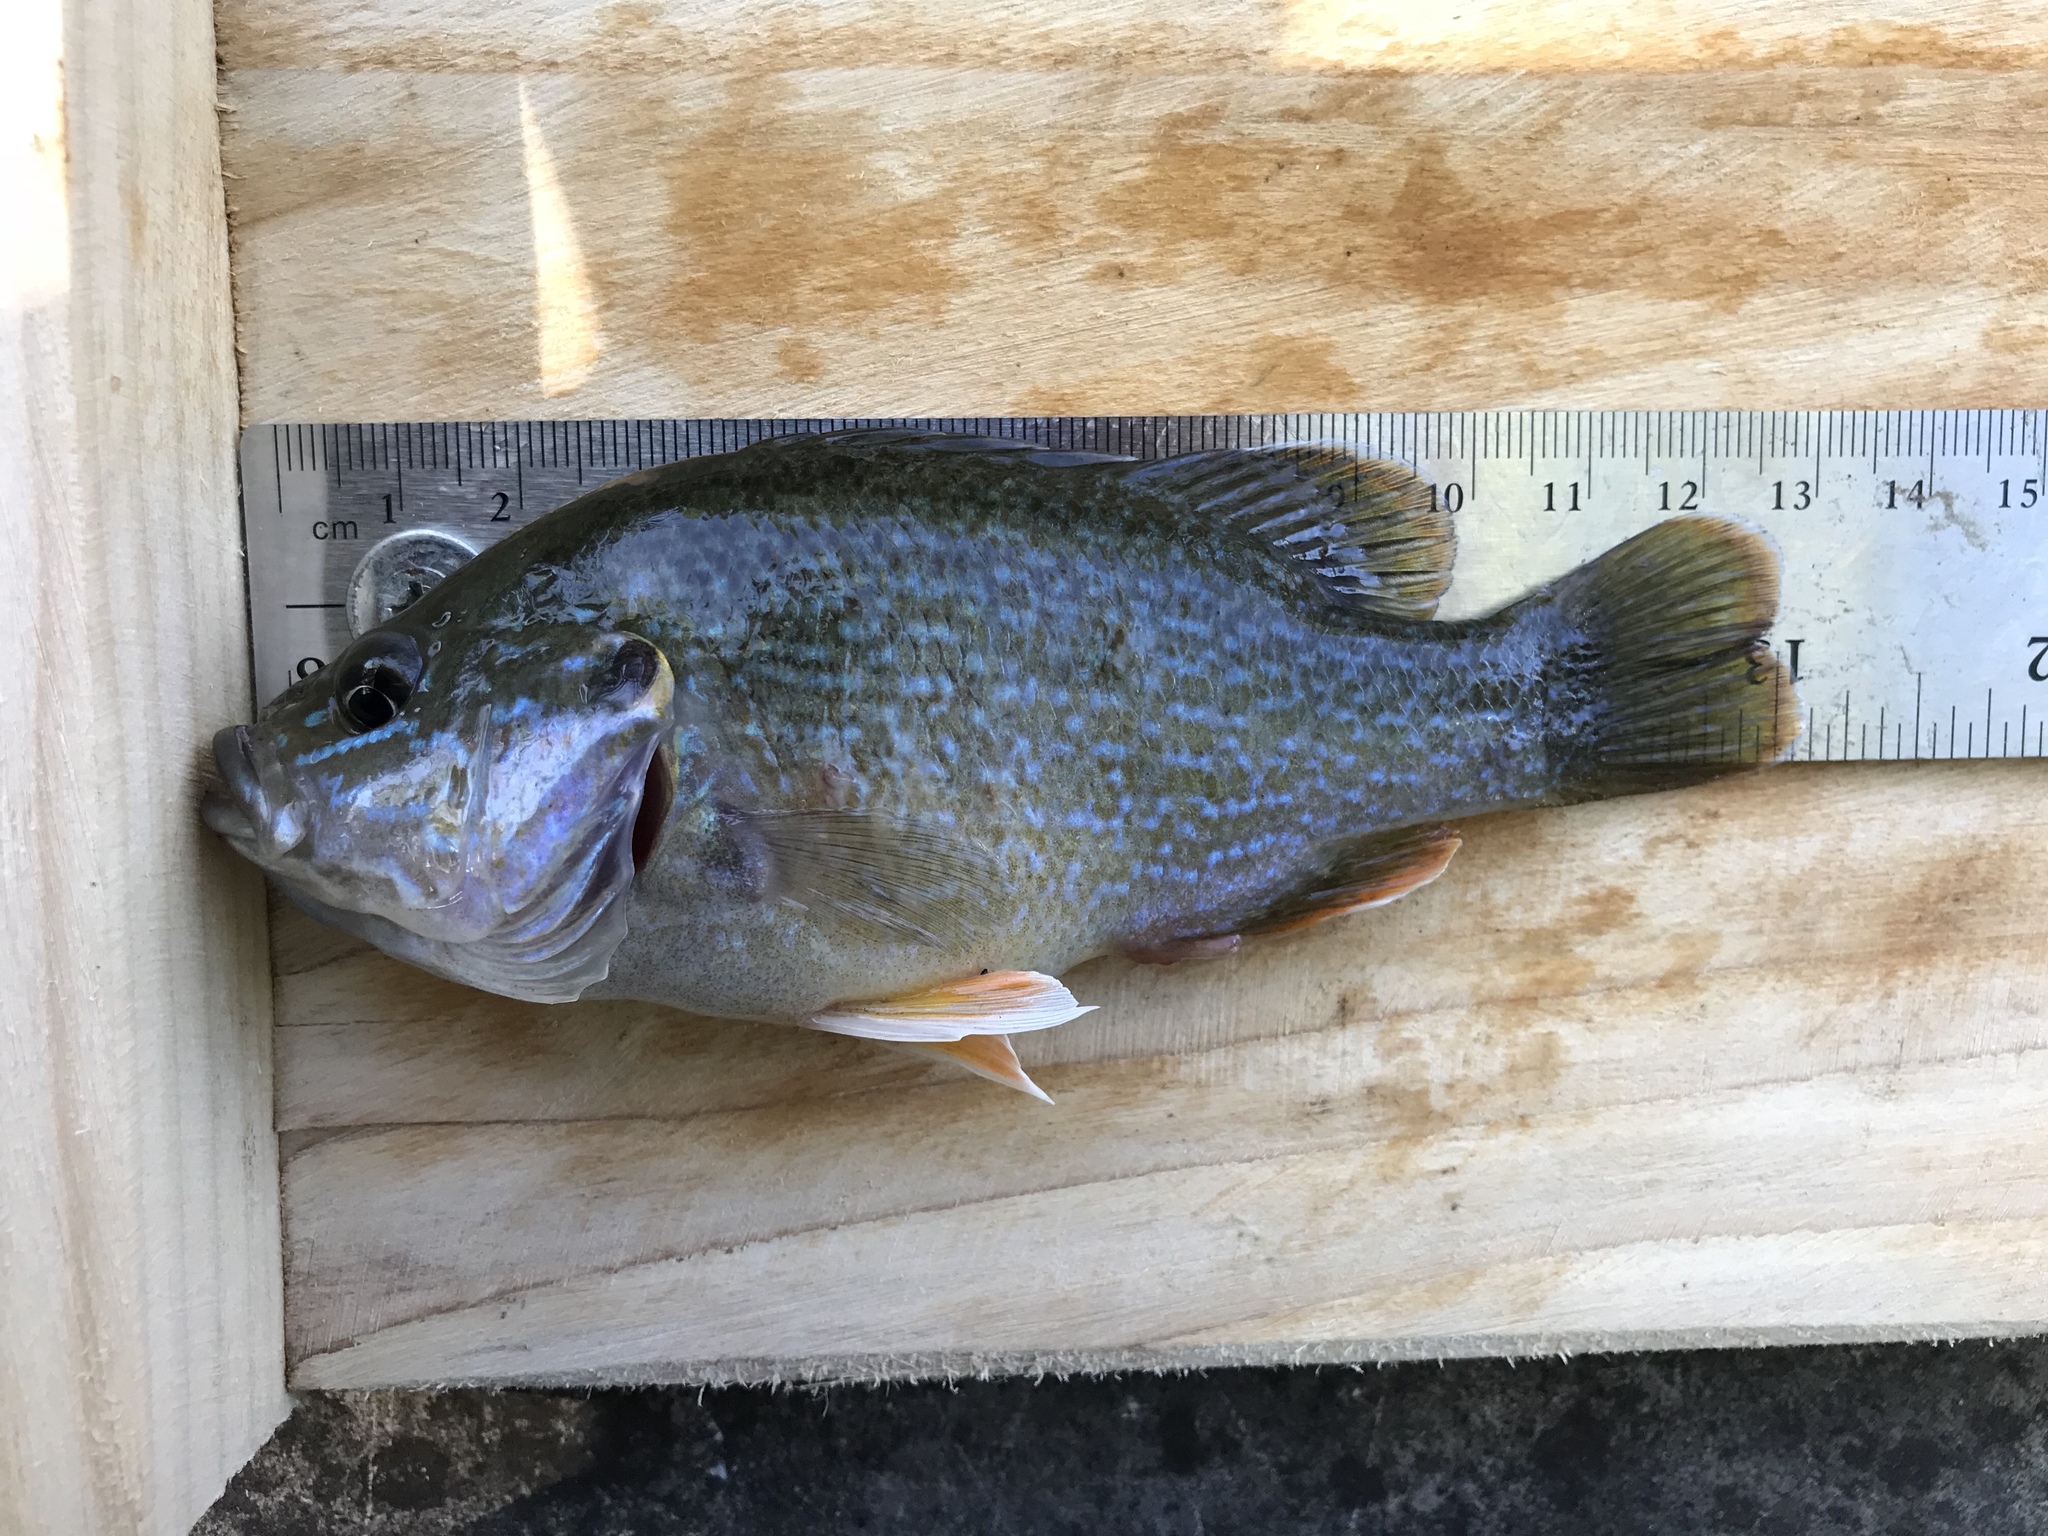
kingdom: Animalia
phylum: Chordata
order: Perciformes
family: Centrarchidae
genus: Lepomis
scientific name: Lepomis cyanellus
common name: Green sunfish
